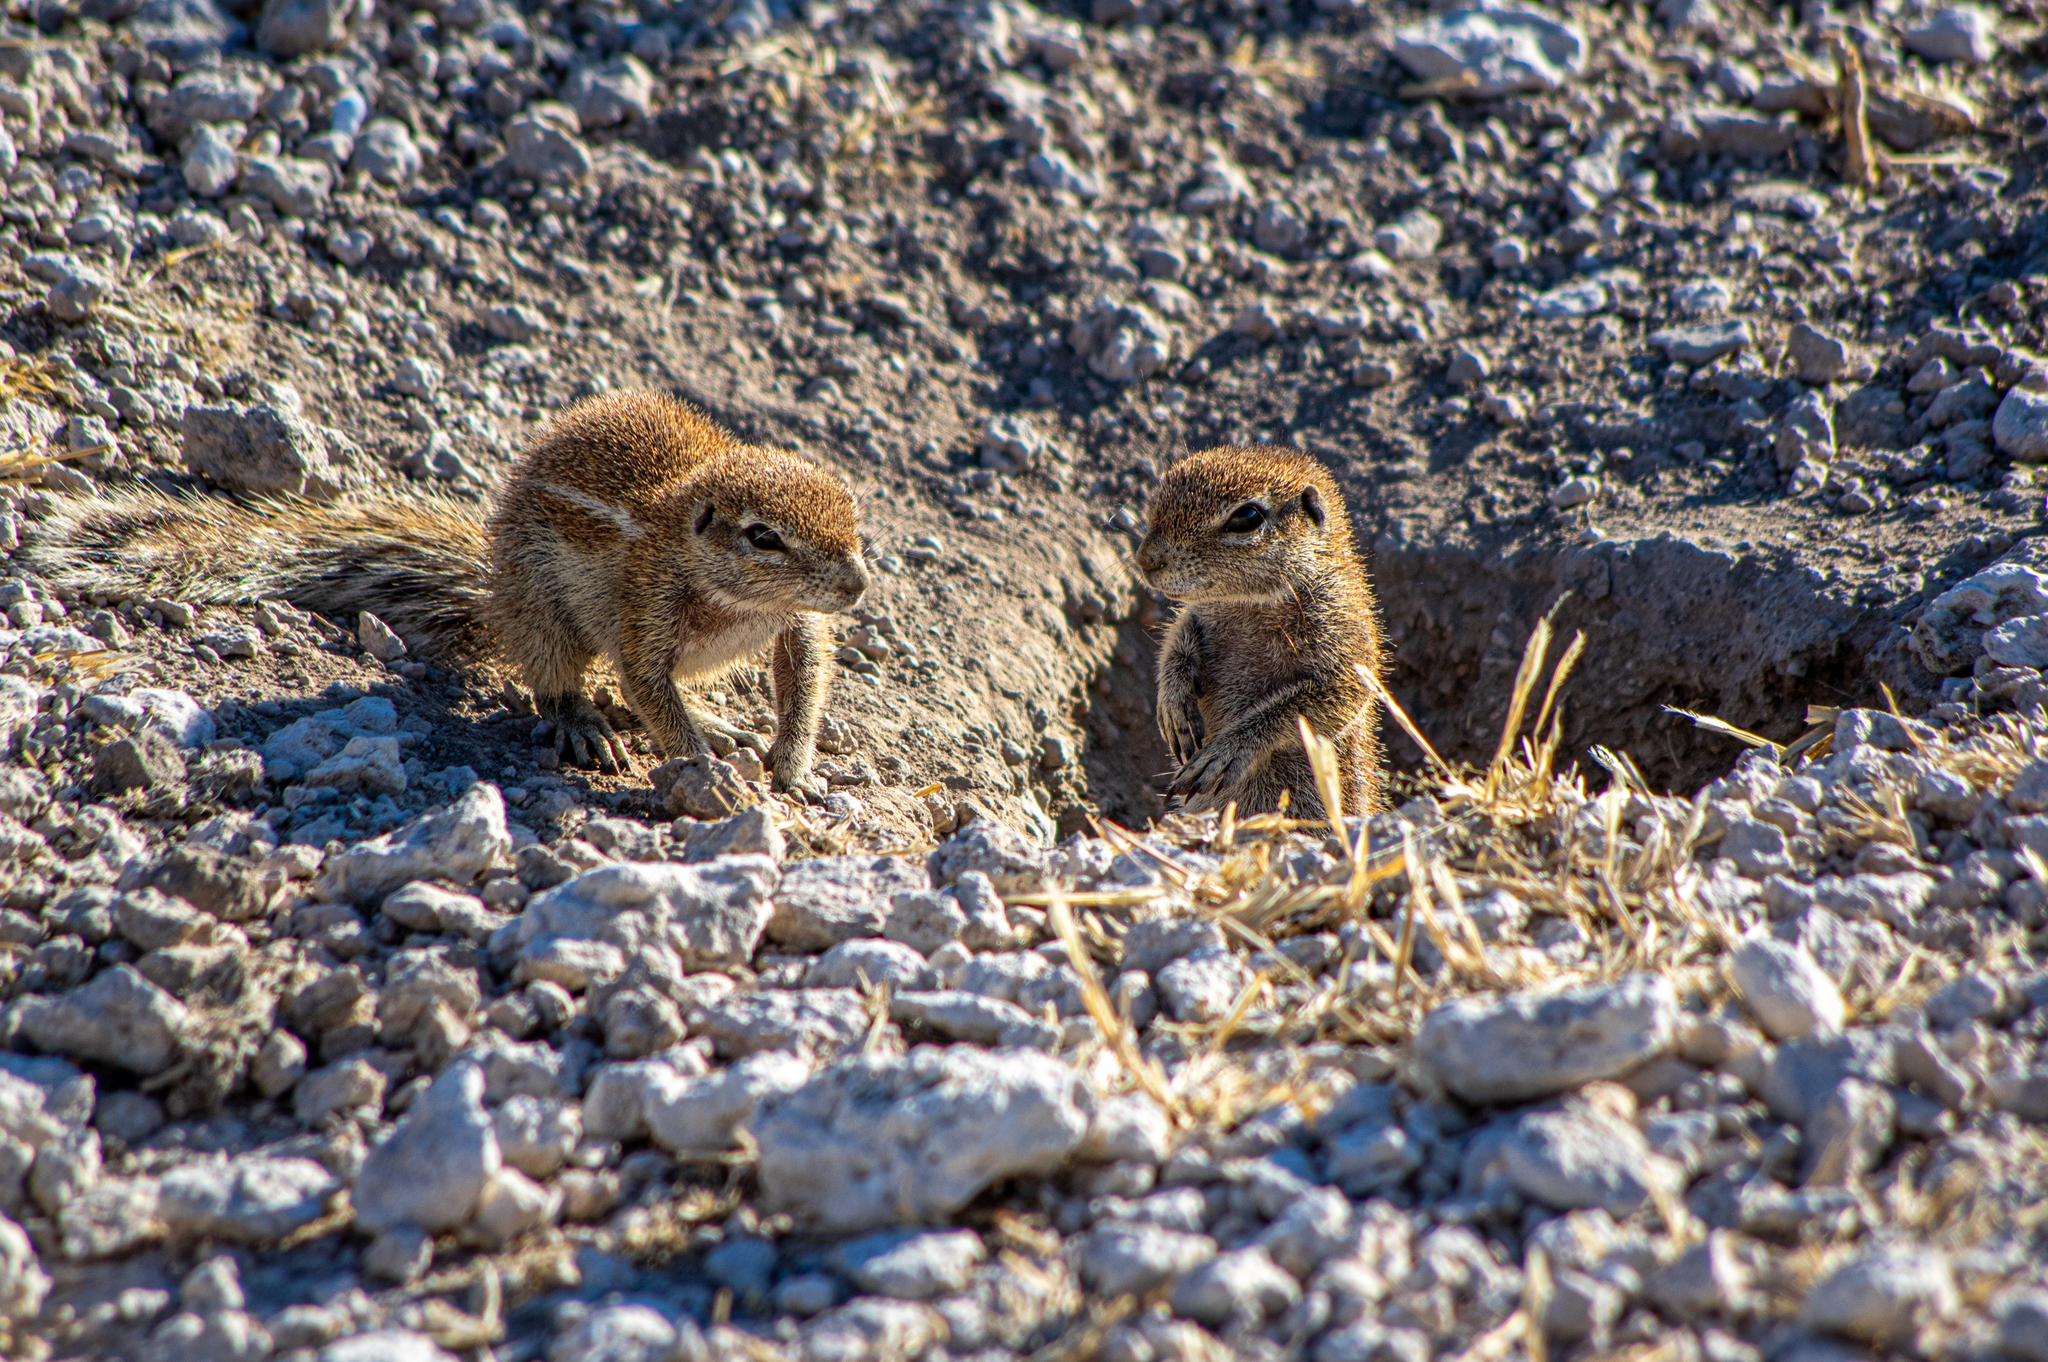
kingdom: Animalia
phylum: Chordata
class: Mammalia
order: Rodentia
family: Sciuridae
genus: Xerus
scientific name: Xerus inauris
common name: South african ground squirrel
